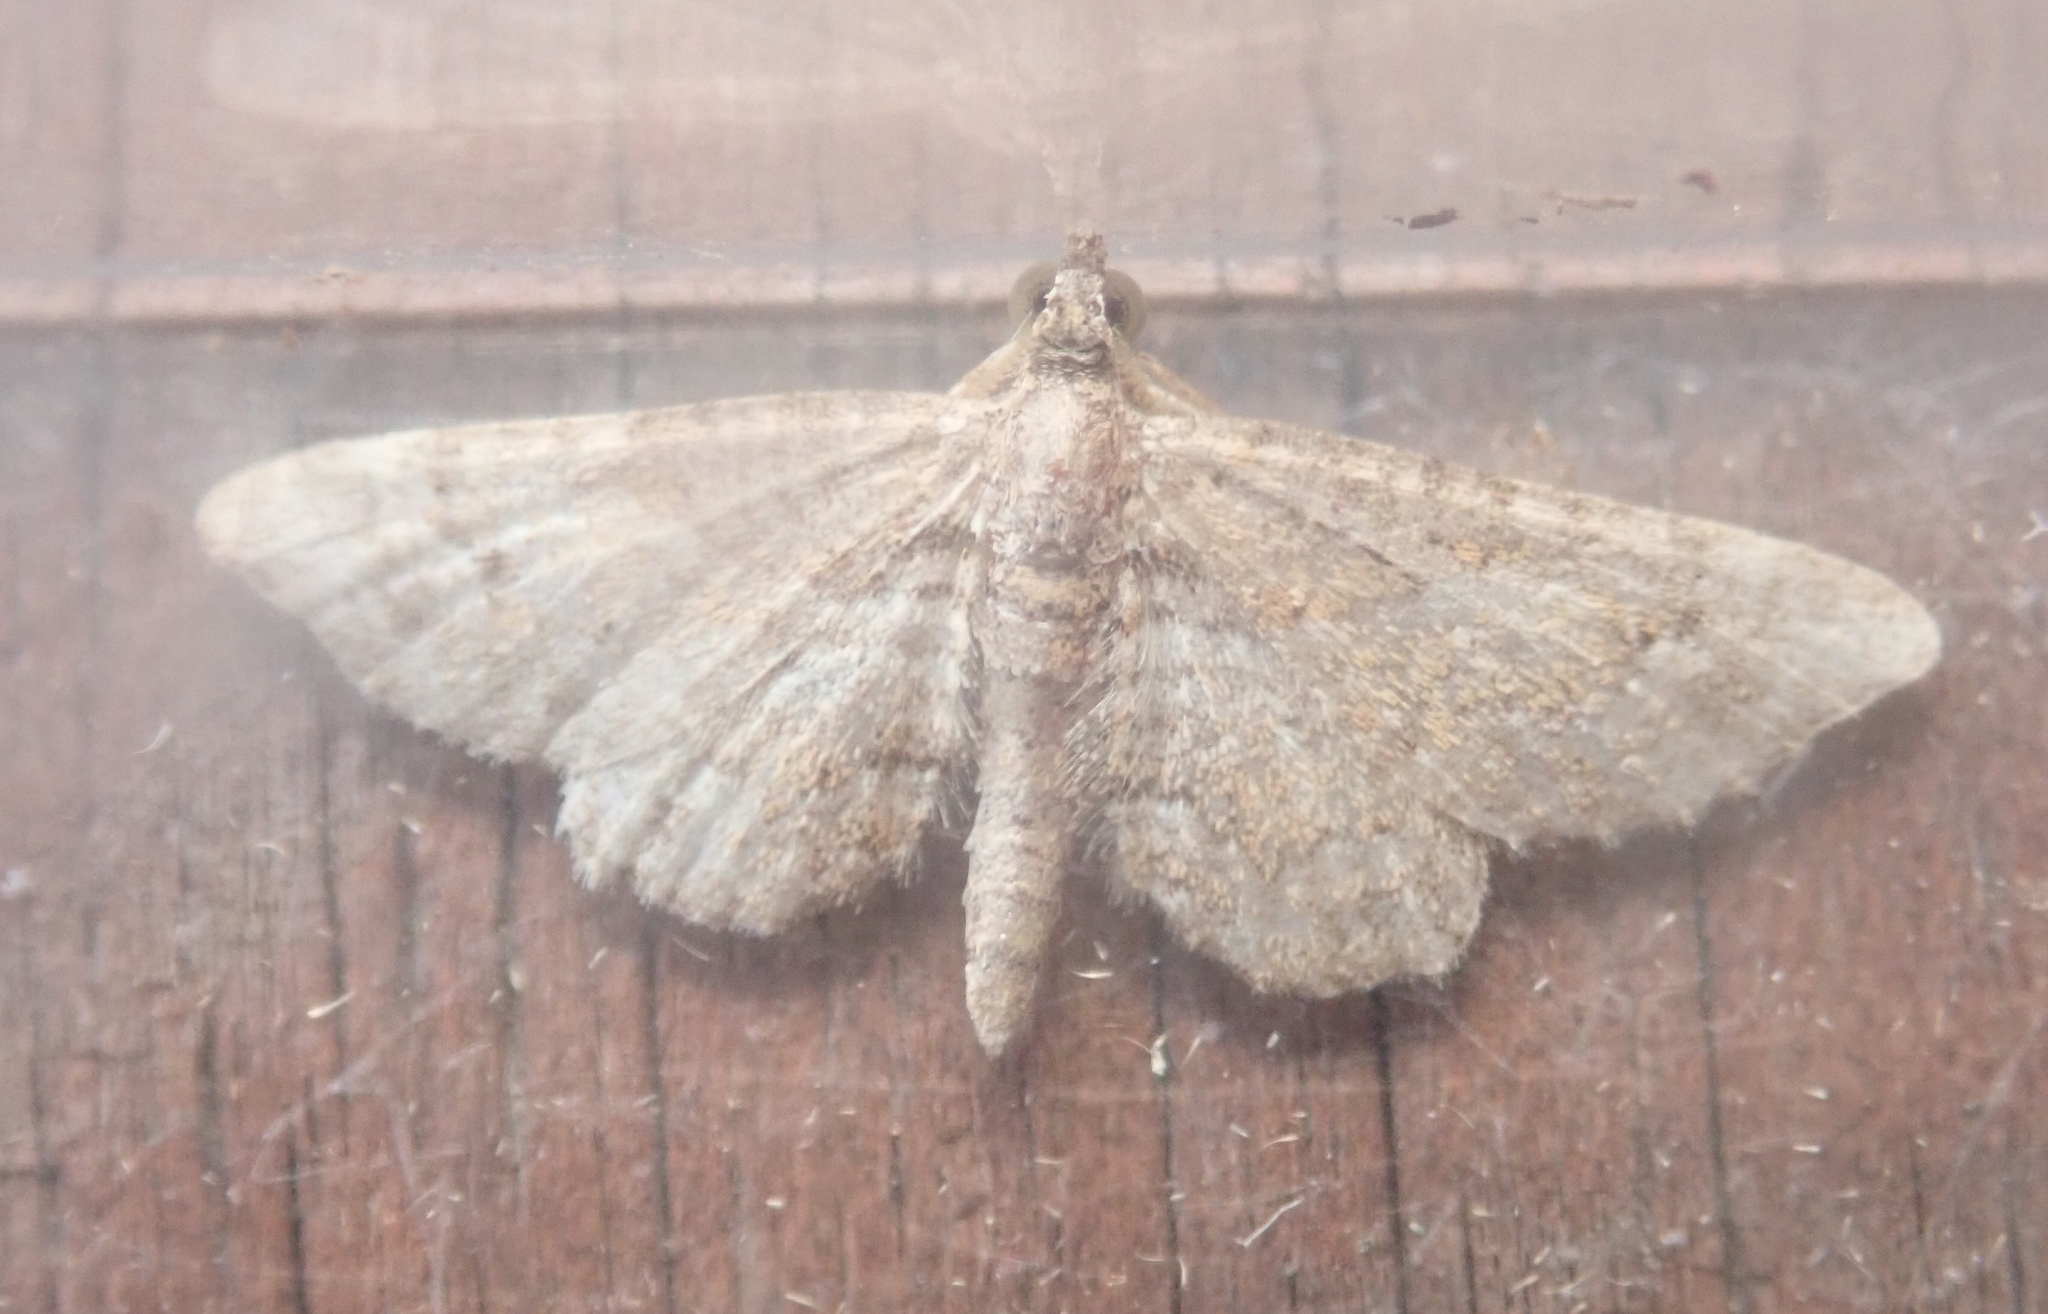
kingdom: Animalia
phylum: Arthropoda
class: Insecta
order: Lepidoptera
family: Geometridae
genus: Gymnoscelis
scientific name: Gymnoscelis rufifasciata
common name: Double-striped pug
